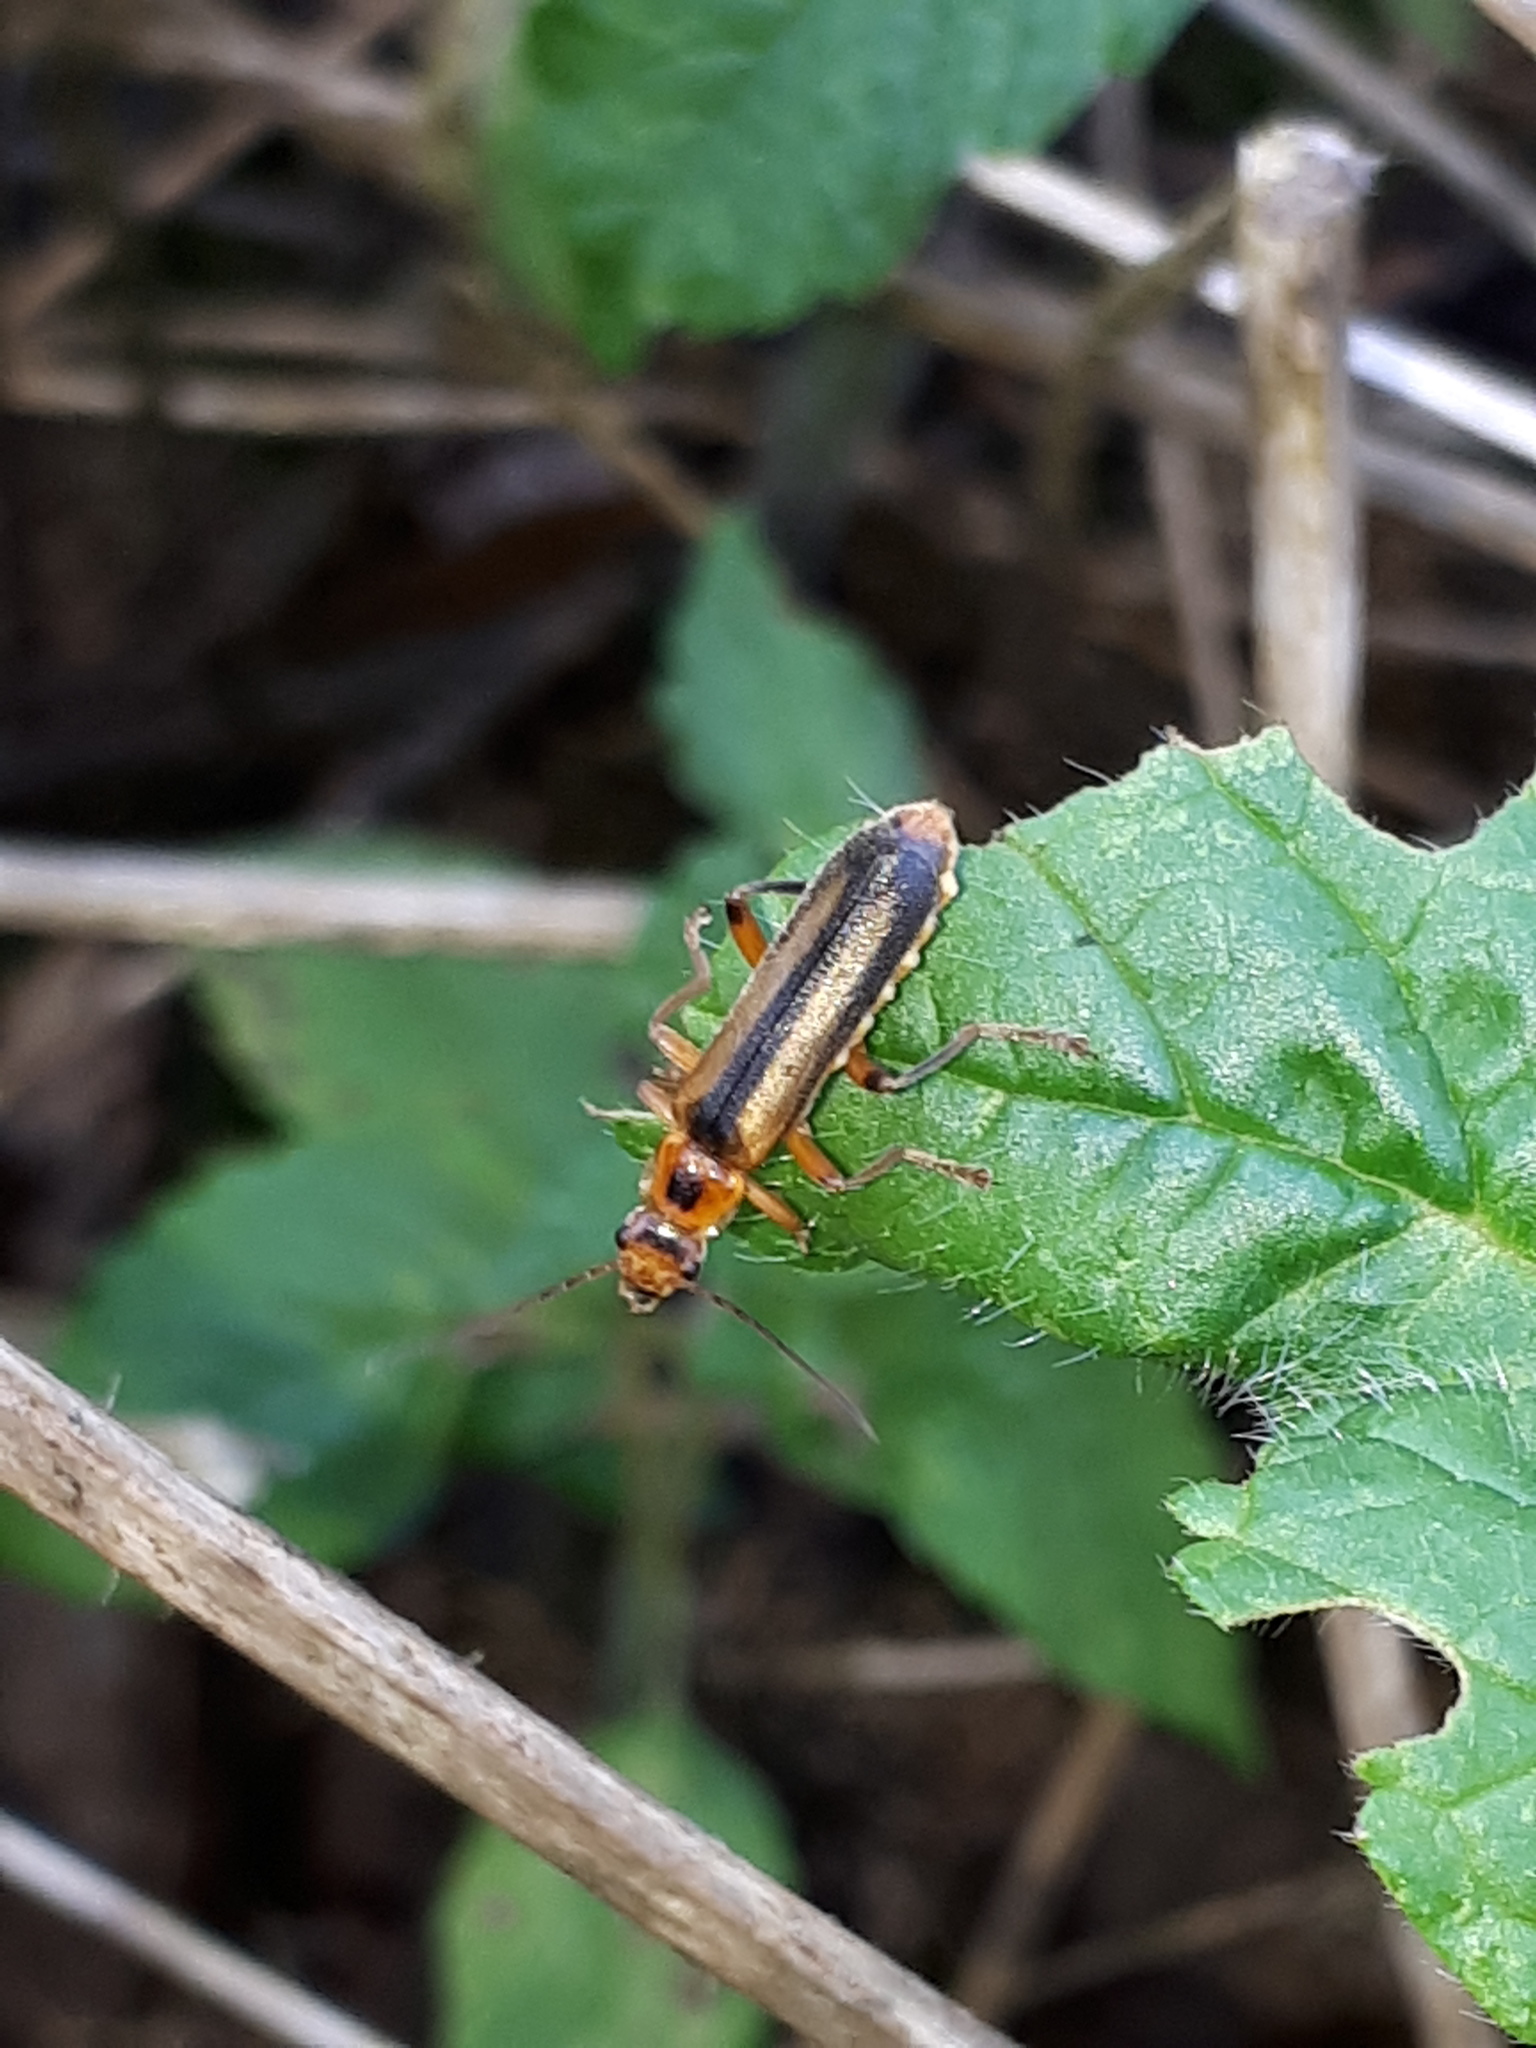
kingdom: Animalia
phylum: Arthropoda
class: Insecta
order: Coleoptera
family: Cantharidae
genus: Metacantharis
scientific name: Metacantharis discoidea
